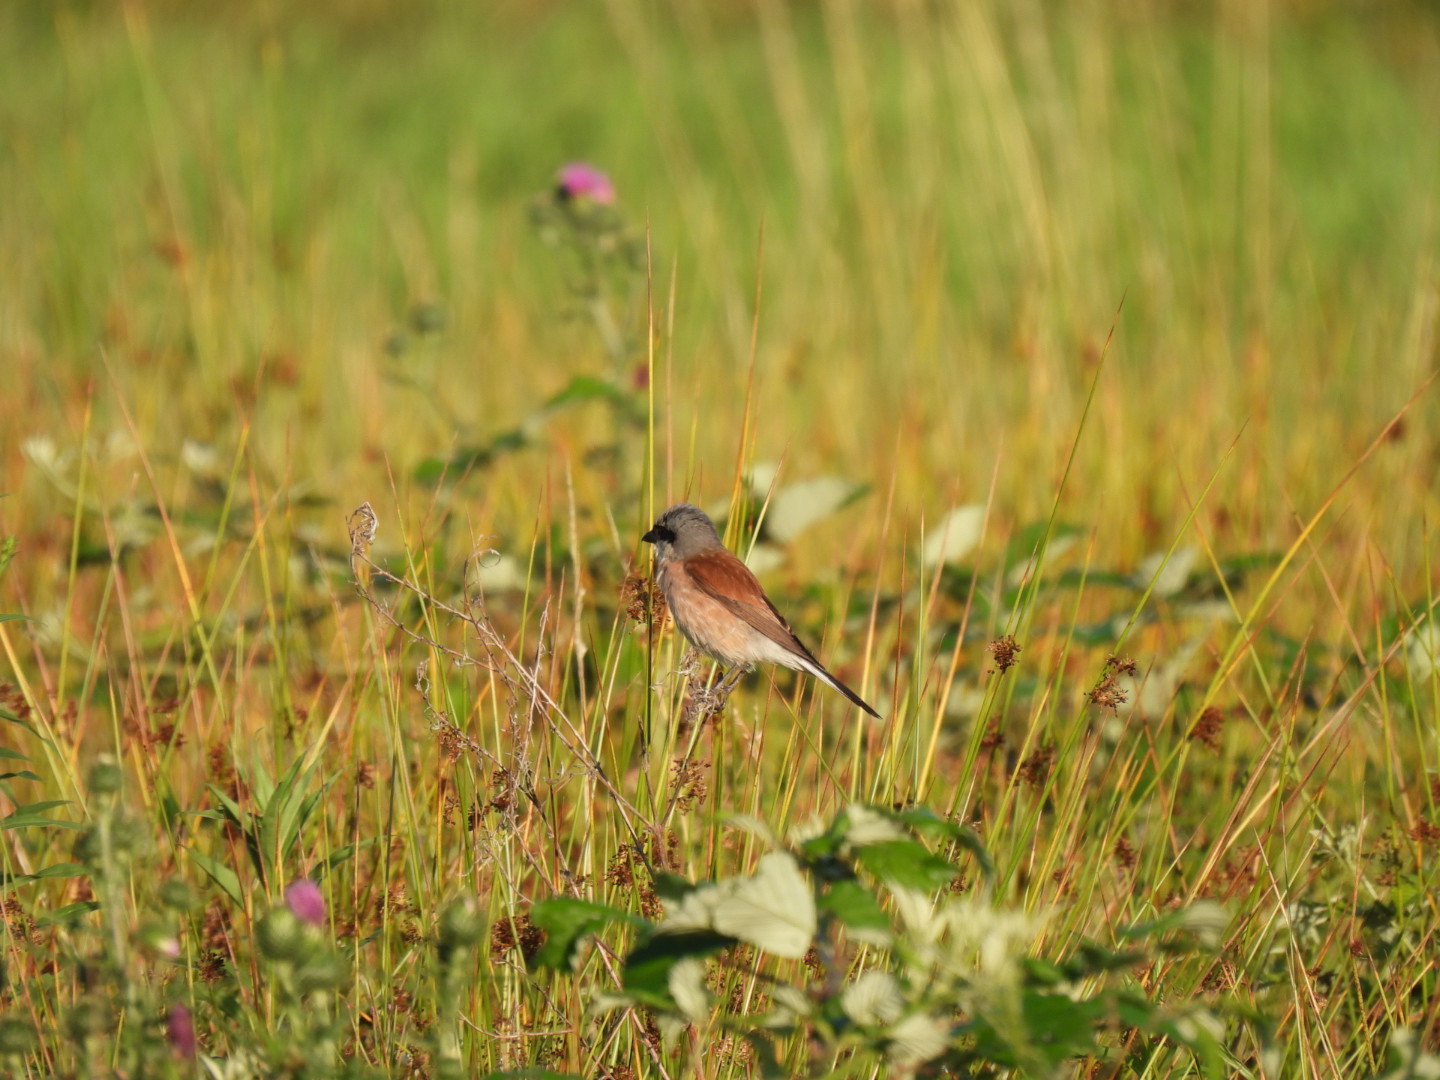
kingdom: Animalia
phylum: Chordata
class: Aves
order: Passeriformes
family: Laniidae
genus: Lanius
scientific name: Lanius collurio
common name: Red-backed shrike
